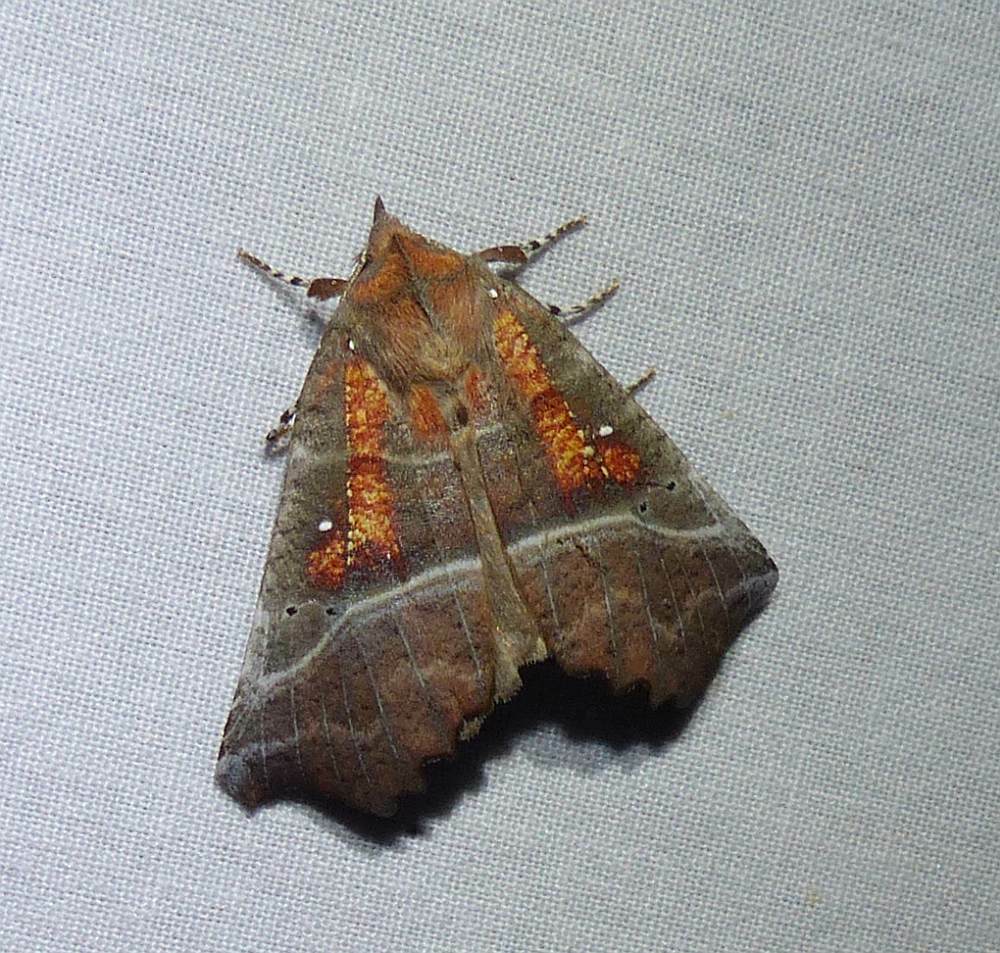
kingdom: Animalia
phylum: Arthropoda
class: Insecta
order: Lepidoptera
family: Erebidae
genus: Scoliopteryx
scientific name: Scoliopteryx libatrix
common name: Herald
